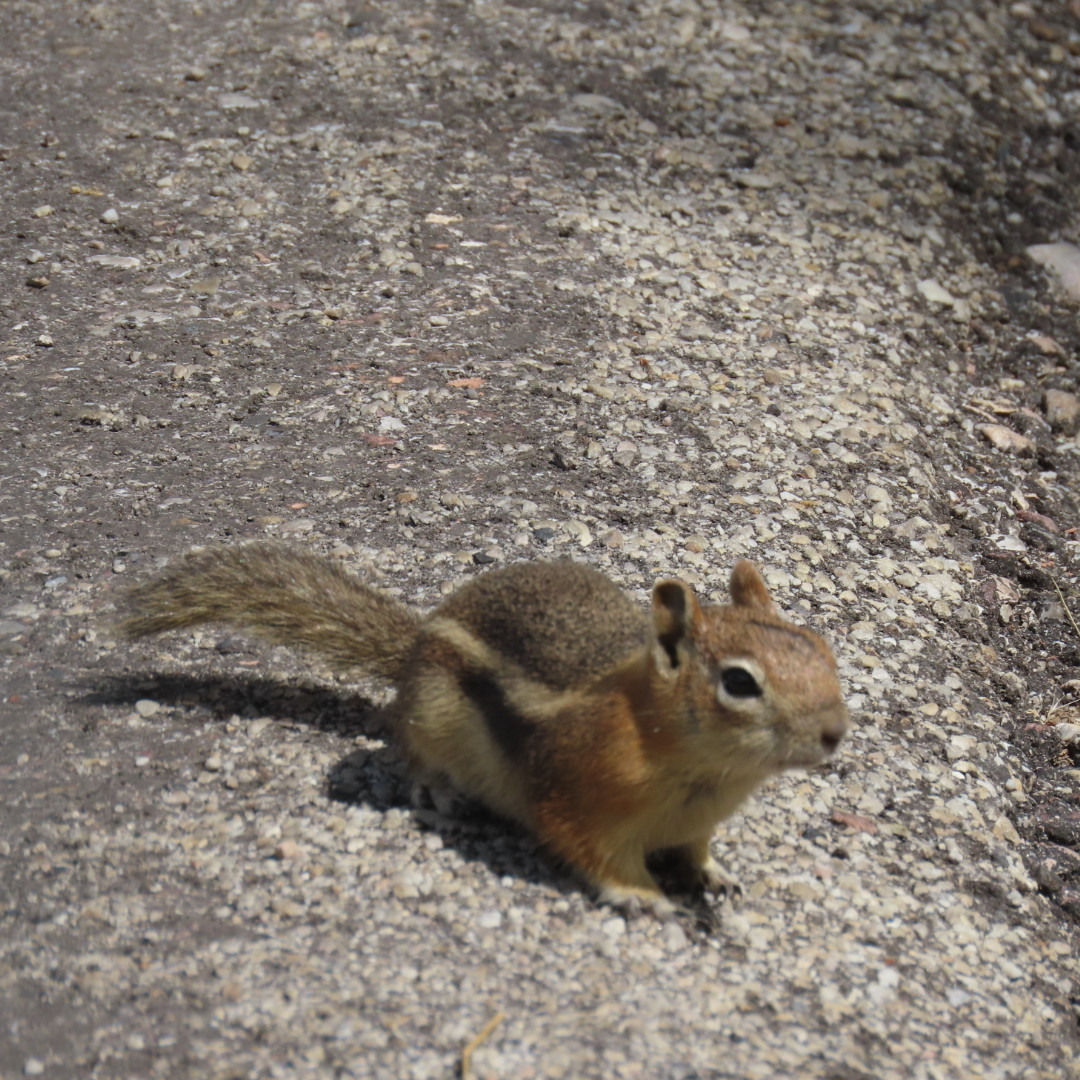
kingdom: Animalia
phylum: Chordata
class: Mammalia
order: Rodentia
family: Sciuridae
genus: Callospermophilus
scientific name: Callospermophilus lateralis
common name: Golden-mantled ground squirrel
